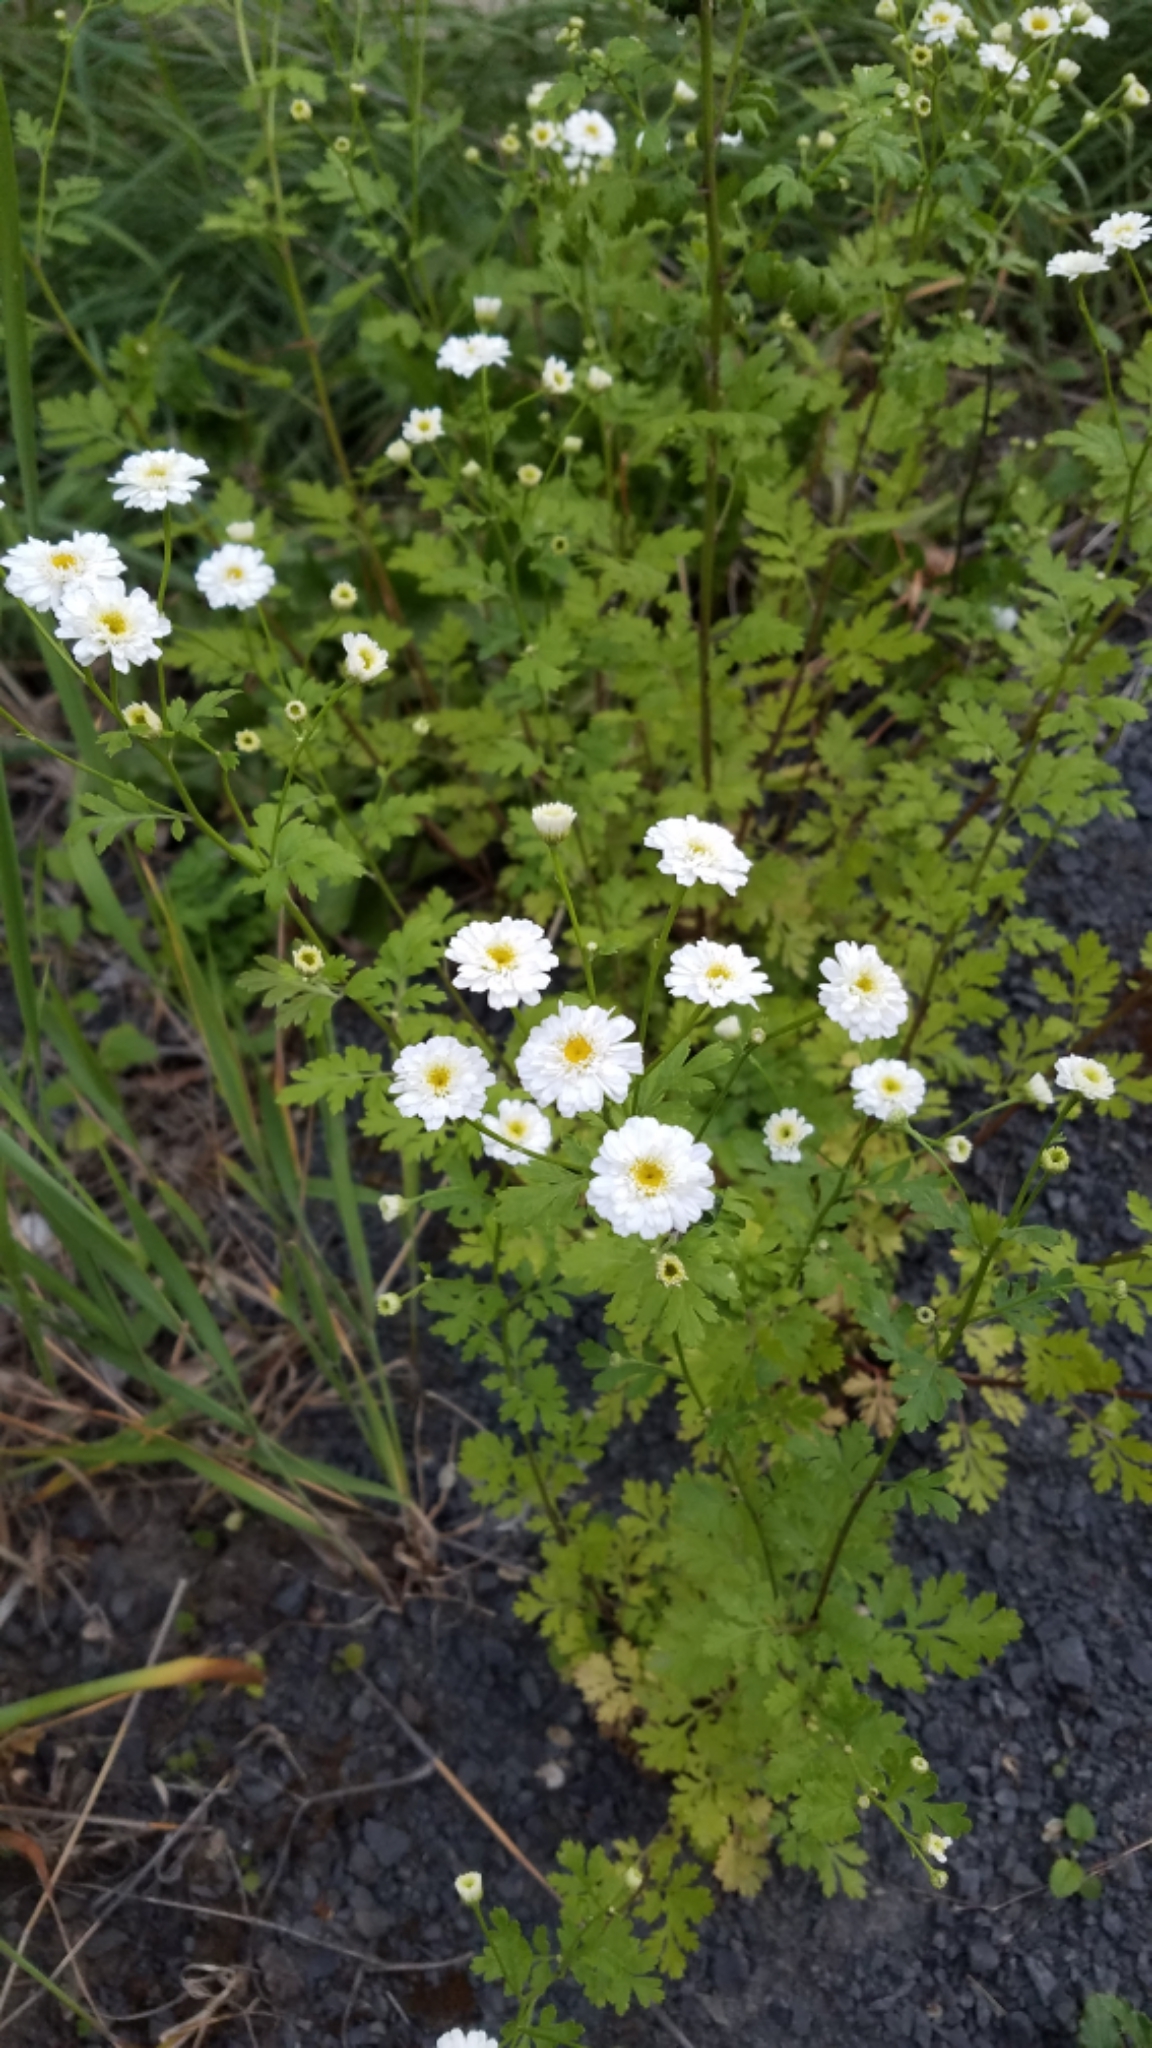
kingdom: Plantae
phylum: Tracheophyta
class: Magnoliopsida
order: Asterales
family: Asteraceae
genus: Tanacetum
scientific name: Tanacetum parthenium
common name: Feverfew
